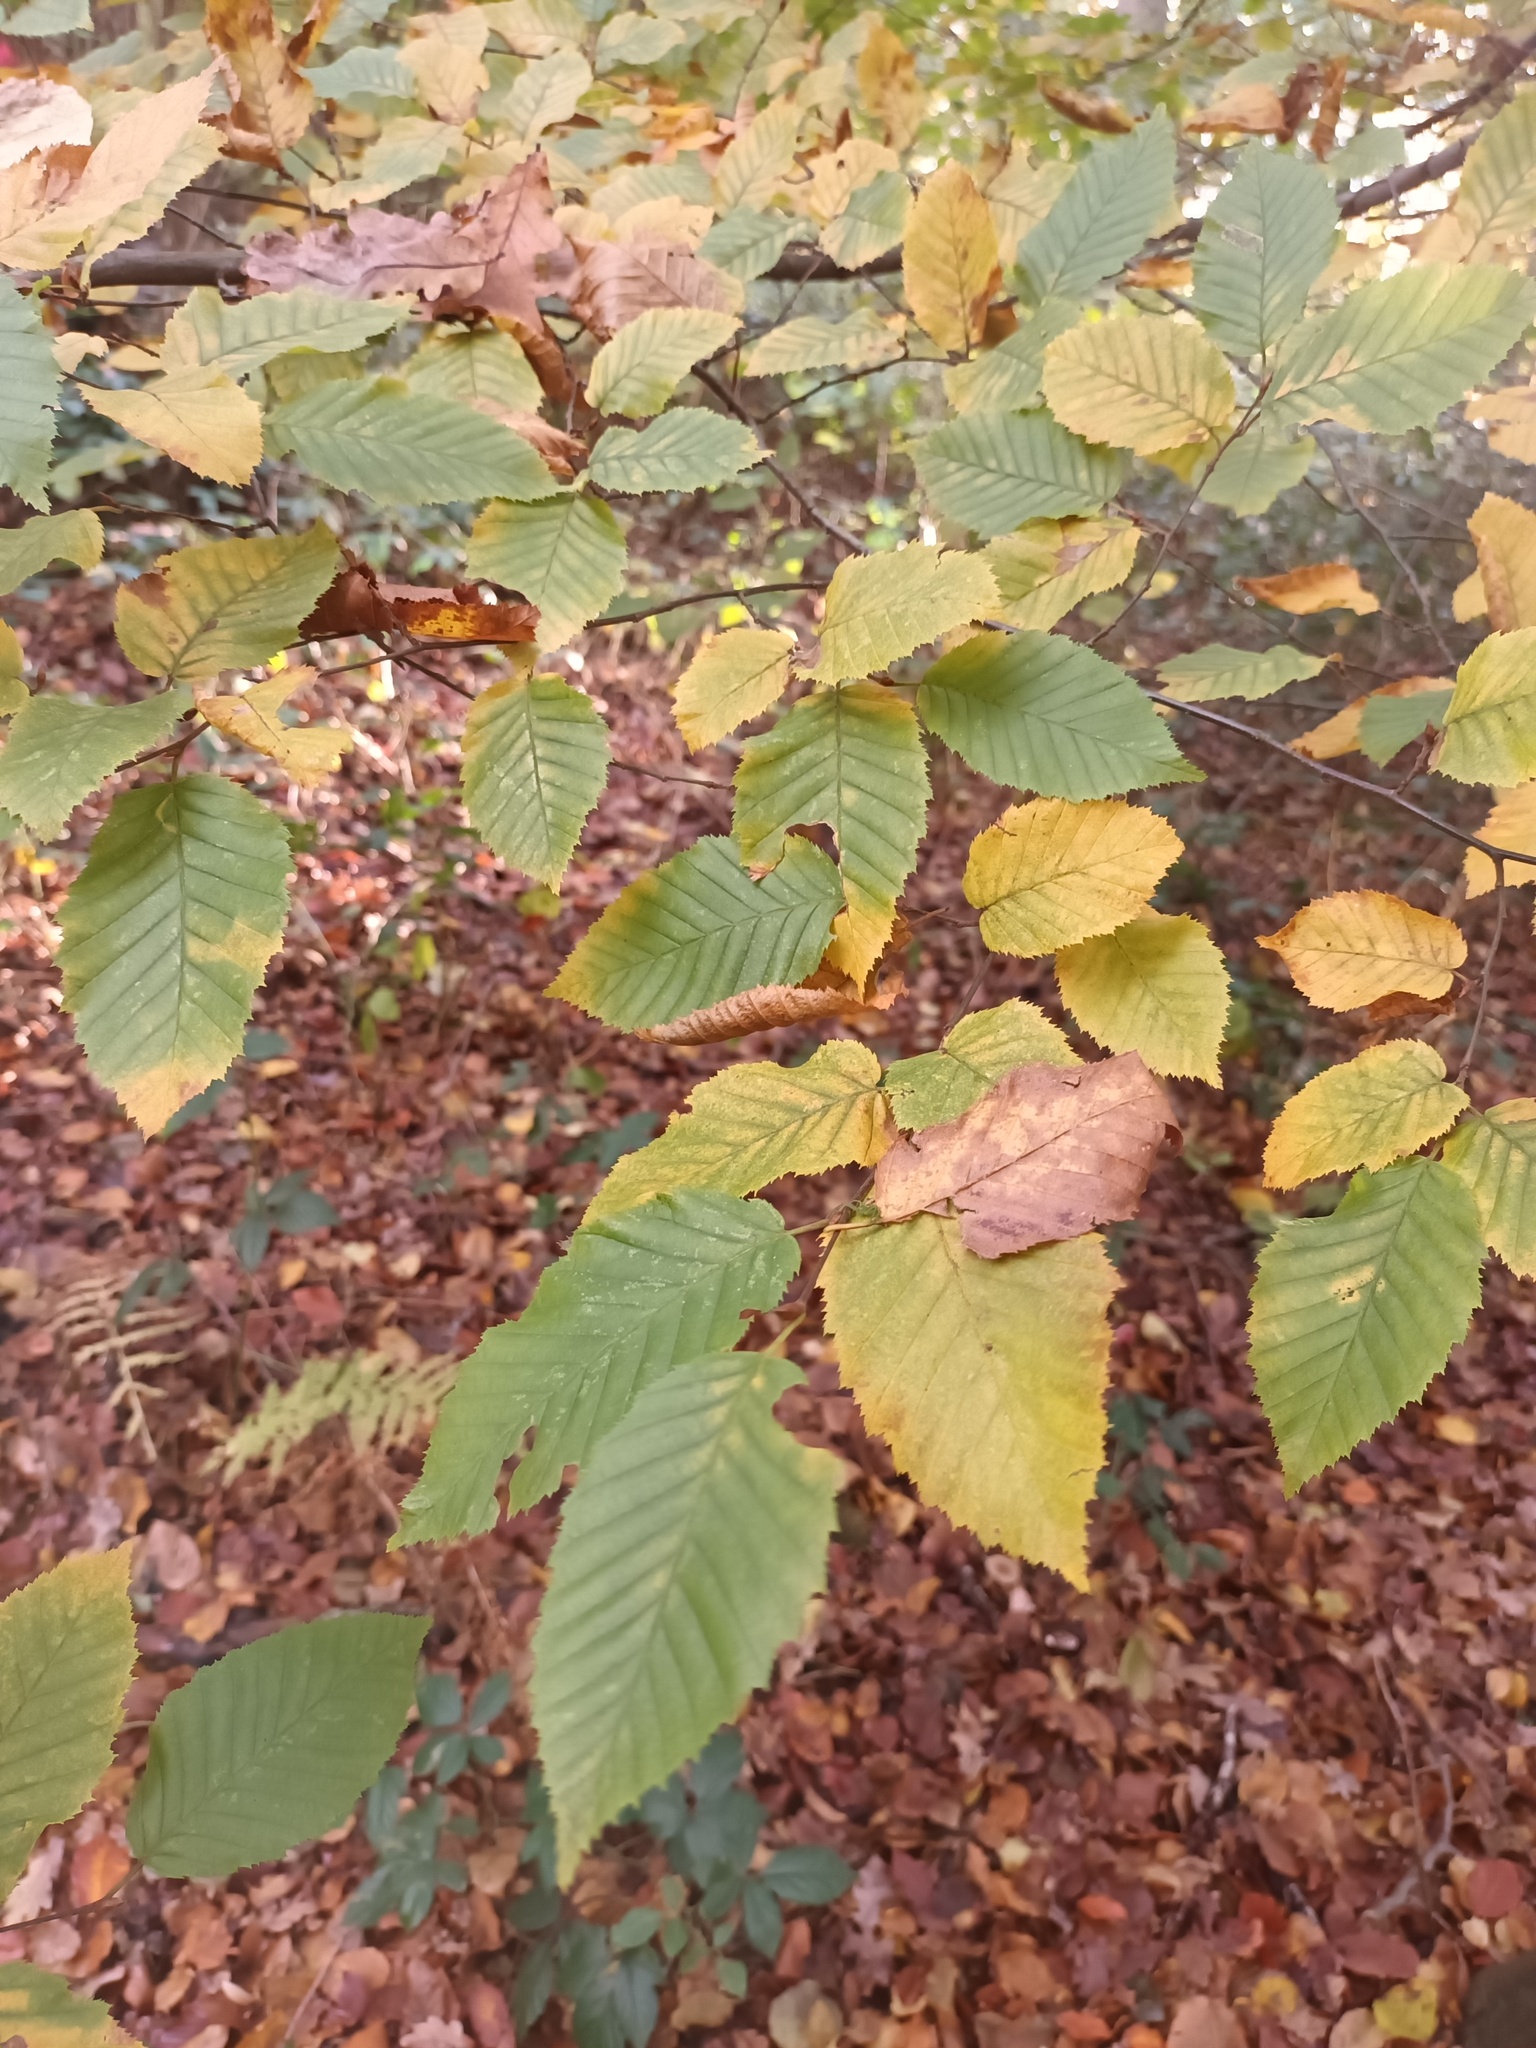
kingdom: Plantae
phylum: Tracheophyta
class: Magnoliopsida
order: Fagales
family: Betulaceae
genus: Carpinus
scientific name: Carpinus betulus
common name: Hornbeam
